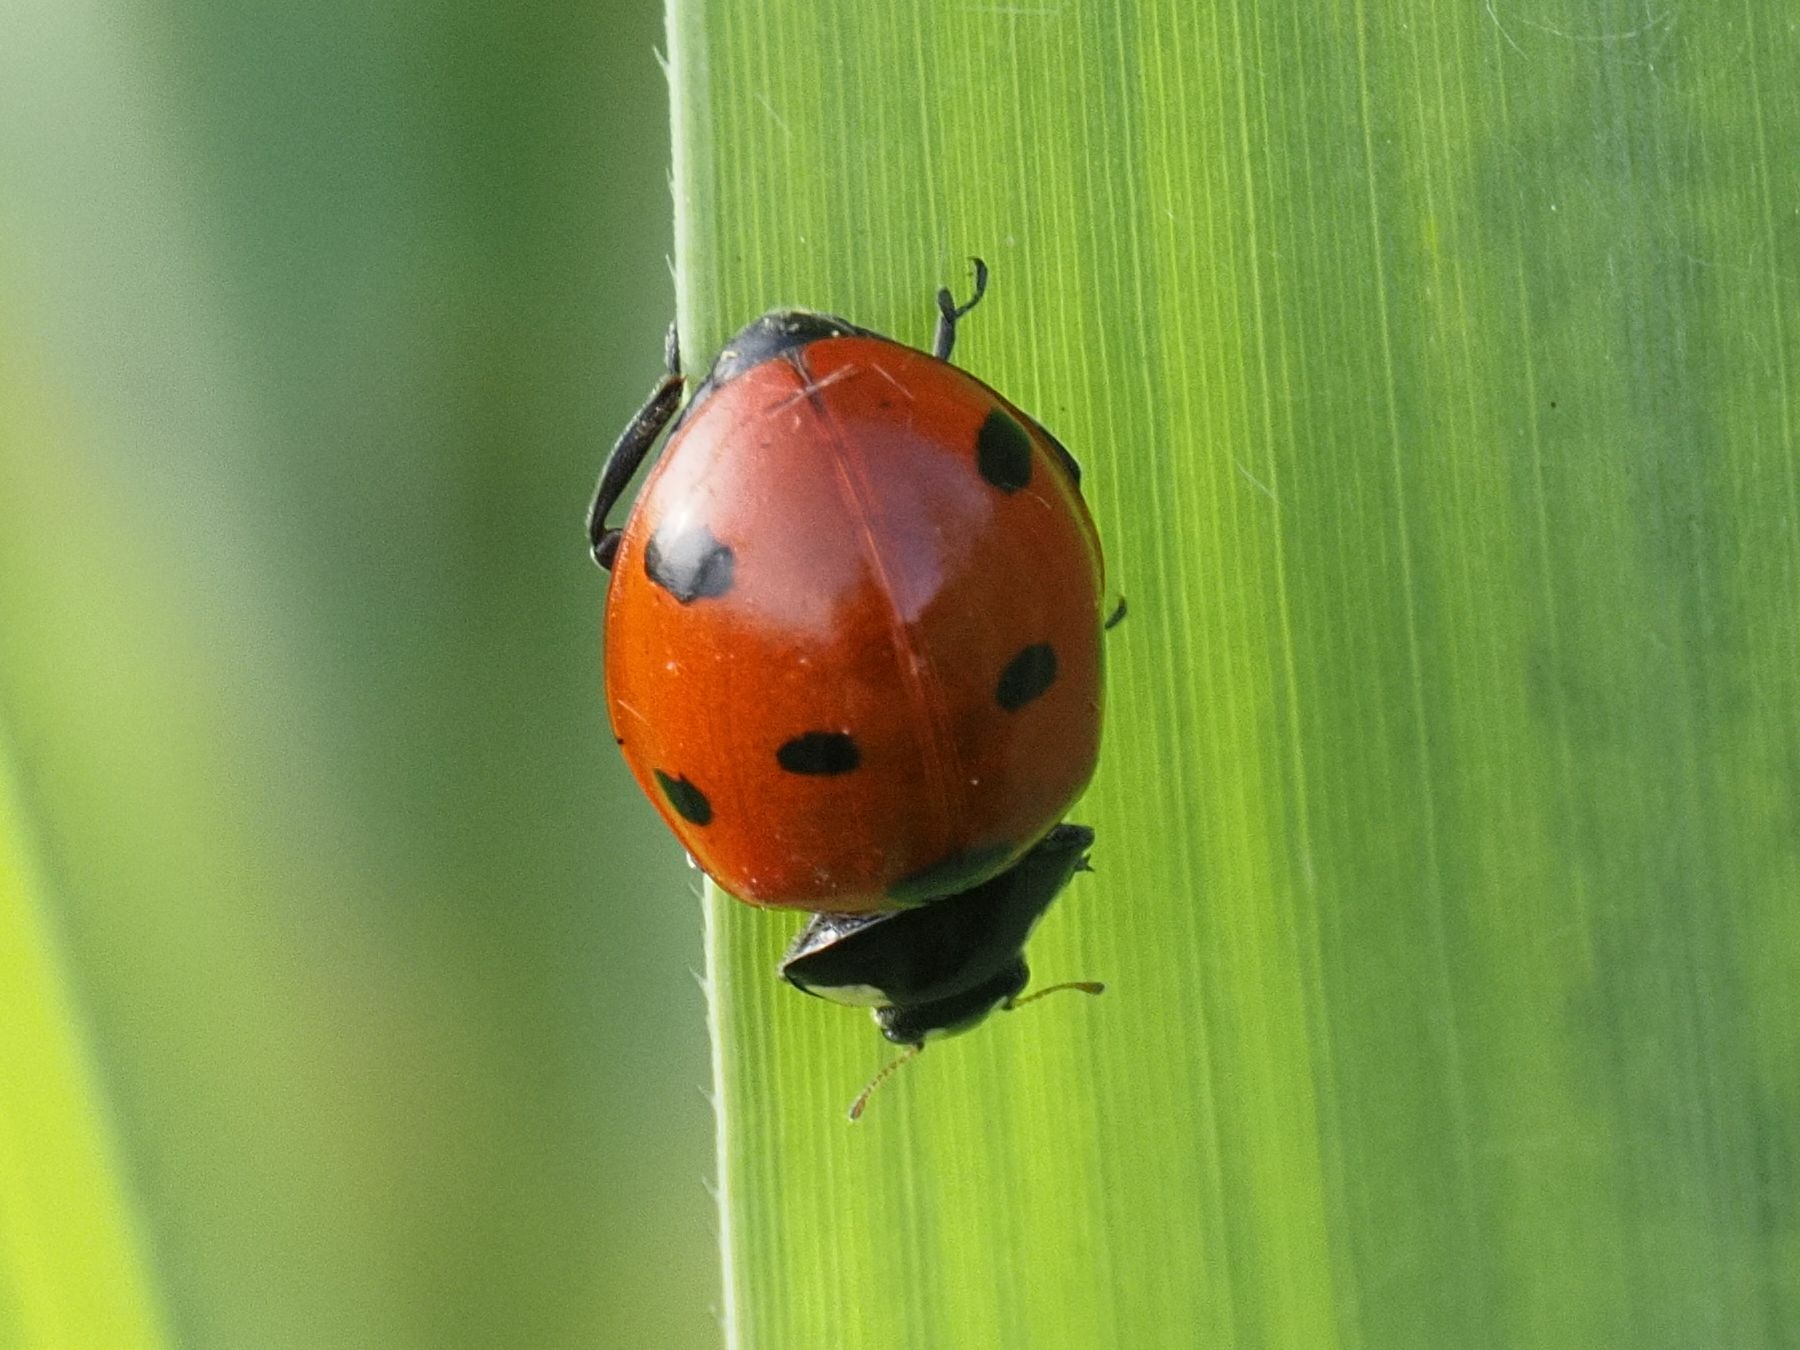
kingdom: Animalia
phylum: Arthropoda
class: Insecta
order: Coleoptera
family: Coccinellidae
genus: Coccinella
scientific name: Coccinella septempunctata
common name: Sevenspotted lady beetle
